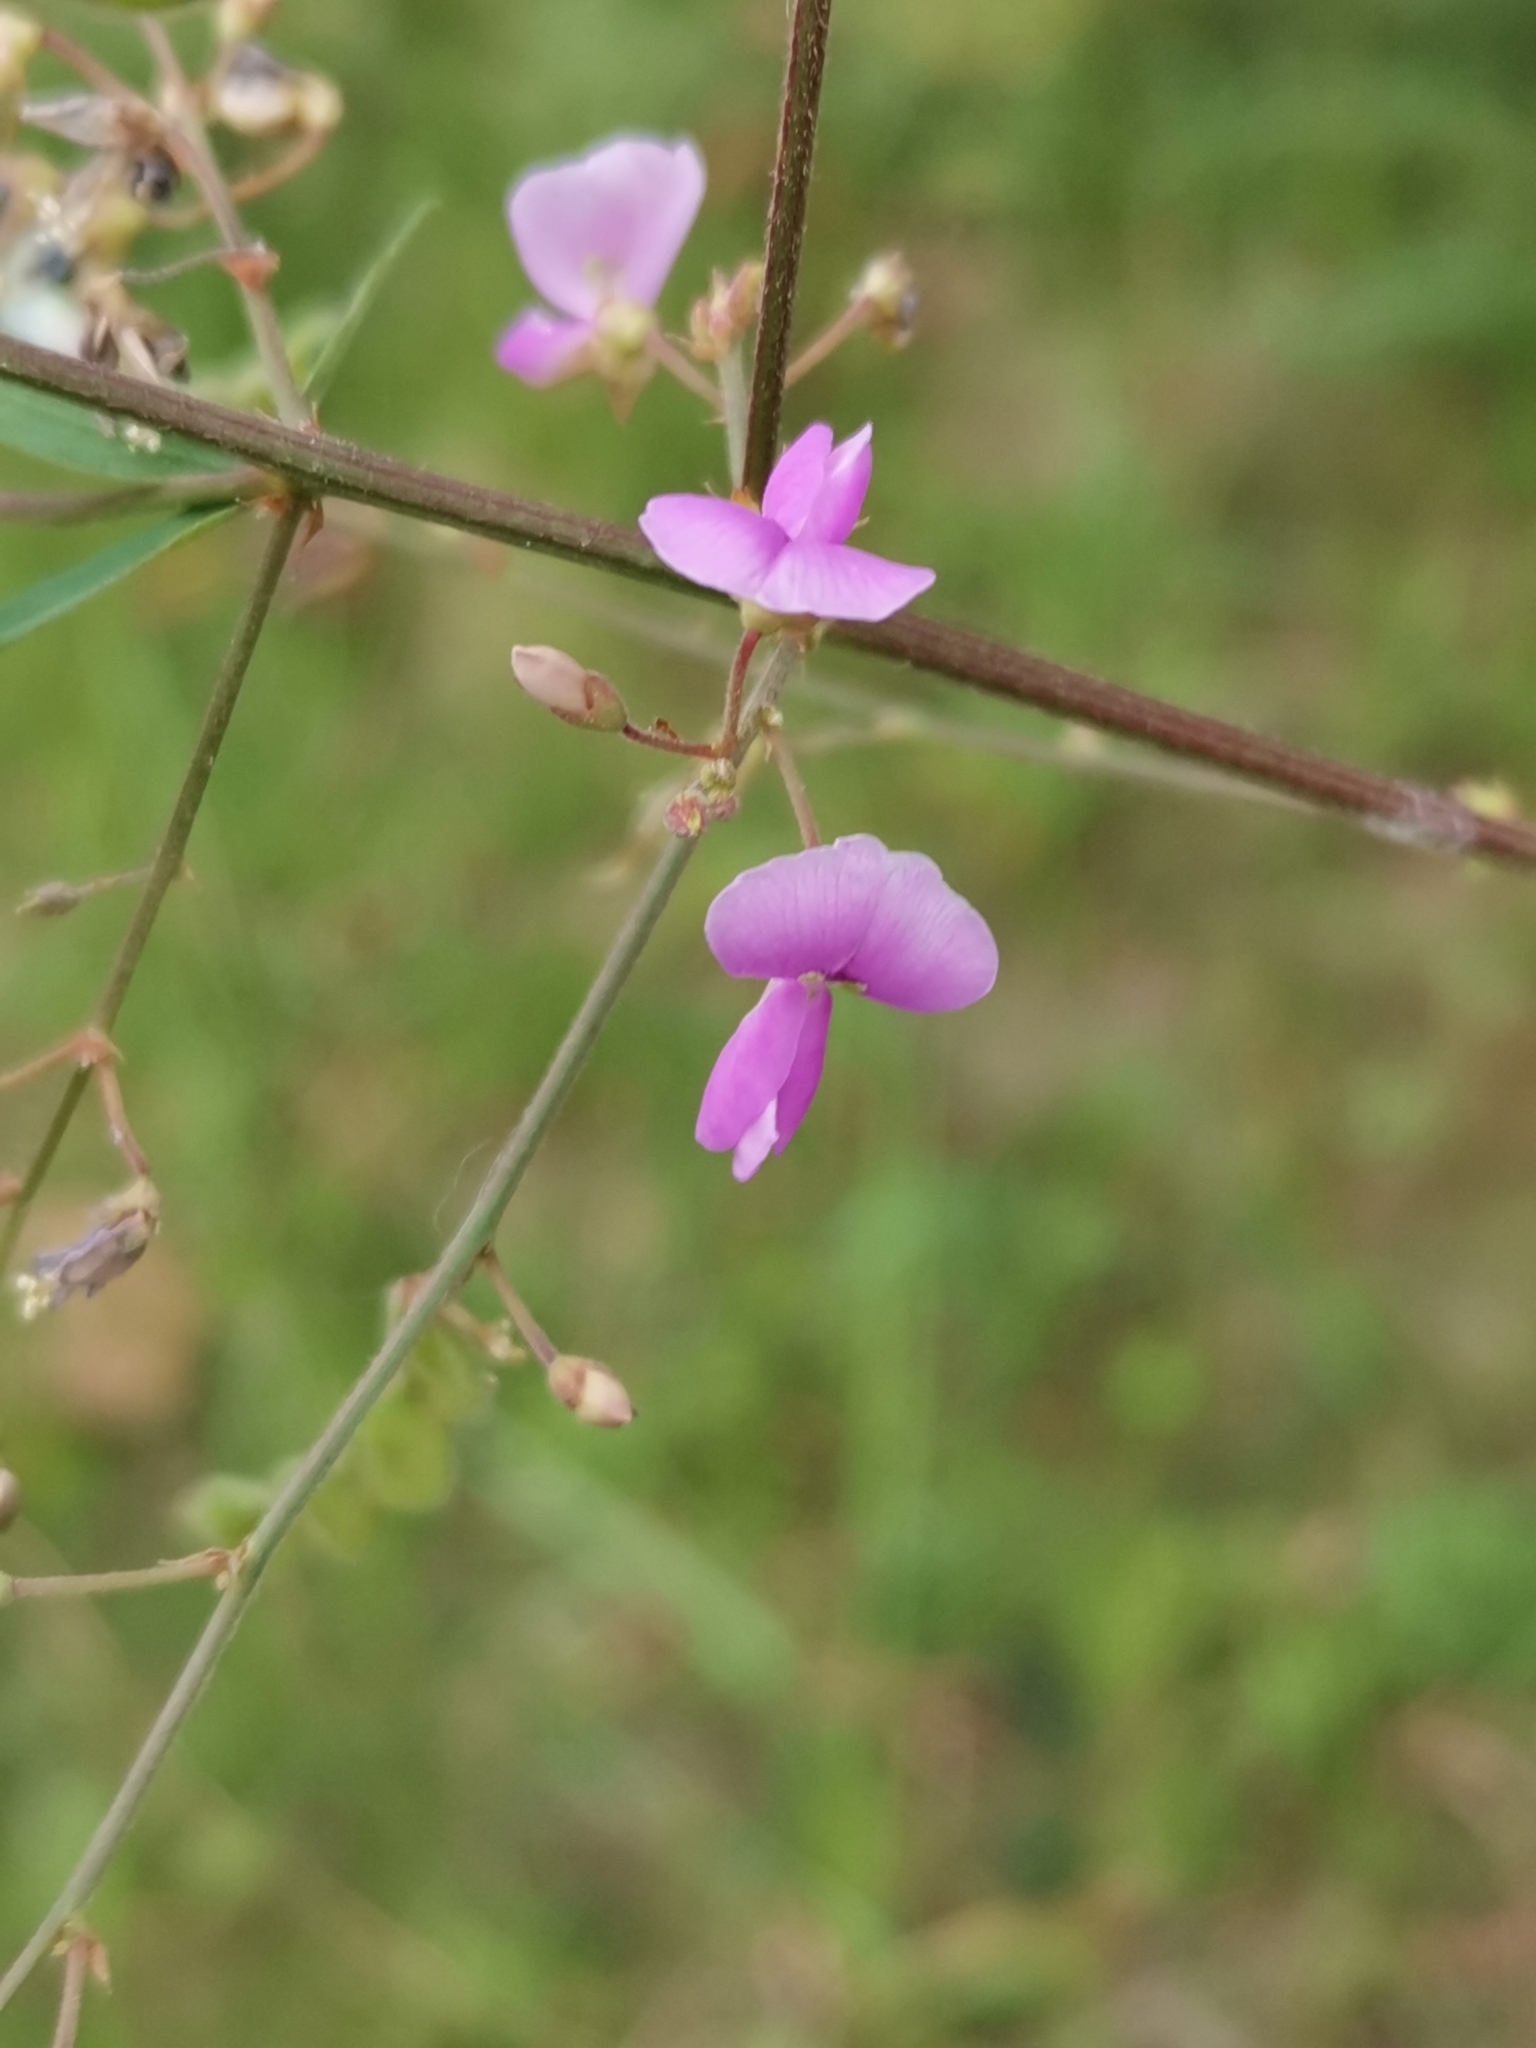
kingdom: Plantae
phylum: Tracheophyta
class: Magnoliopsida
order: Fabales
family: Fabaceae
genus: Desmodium
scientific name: Desmodium paniculatum
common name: Panicled tick-clover
